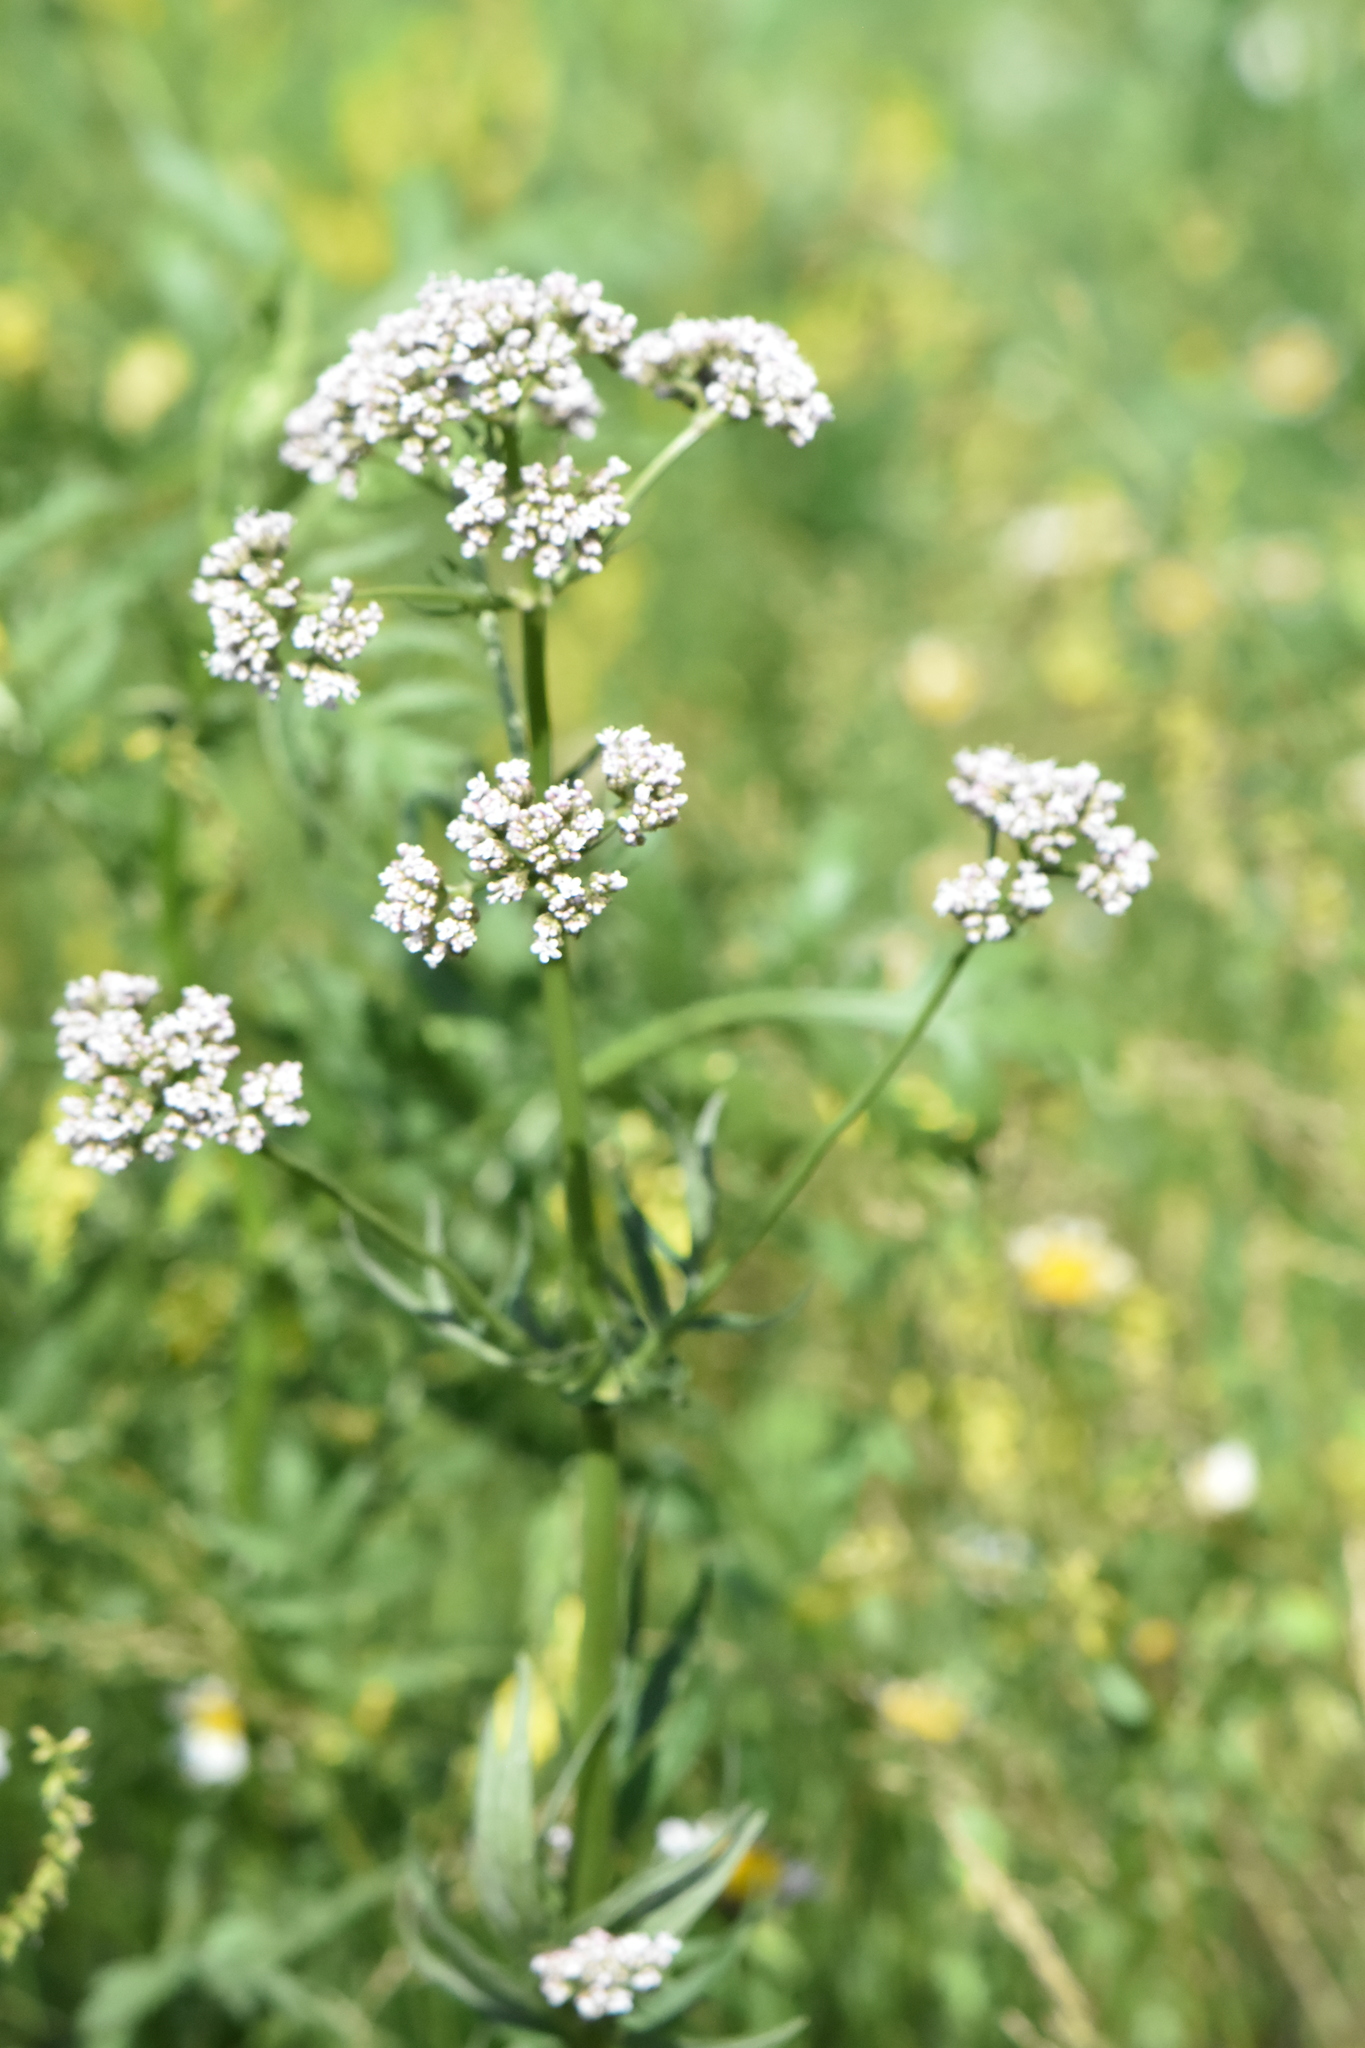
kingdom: Plantae
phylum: Tracheophyta
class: Magnoliopsida
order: Dipsacales
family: Caprifoliaceae
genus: Valeriana
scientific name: Valeriana officinalis
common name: Common valerian
